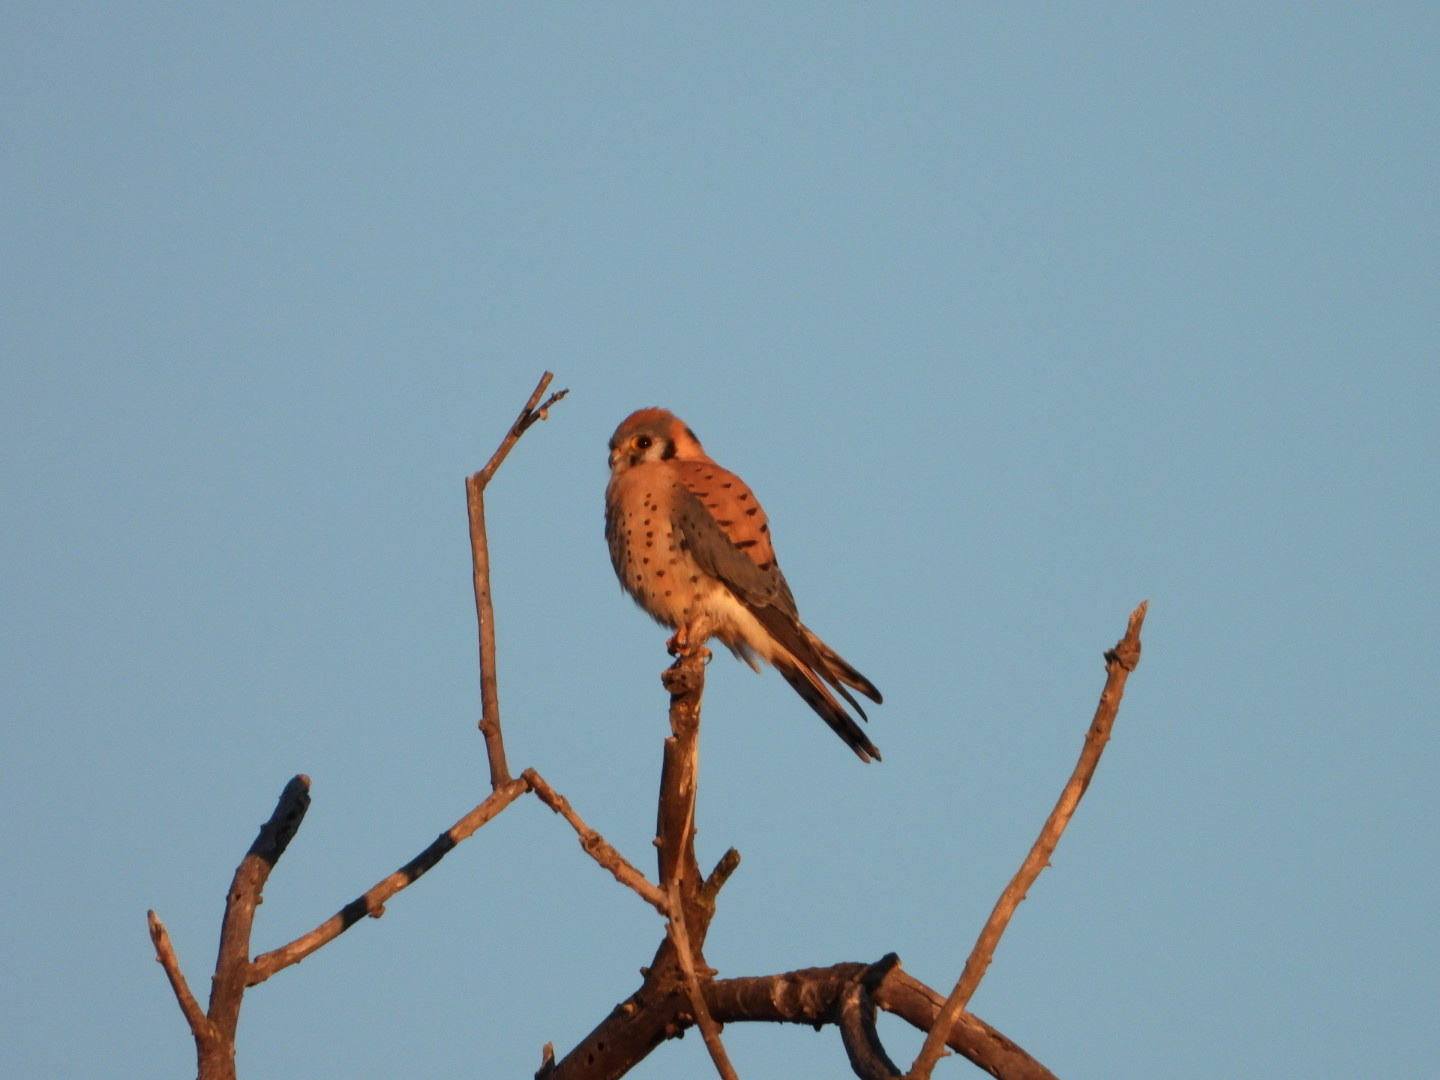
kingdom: Animalia
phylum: Chordata
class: Aves
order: Falconiformes
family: Falconidae
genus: Falco
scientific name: Falco sparverius
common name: American kestrel
